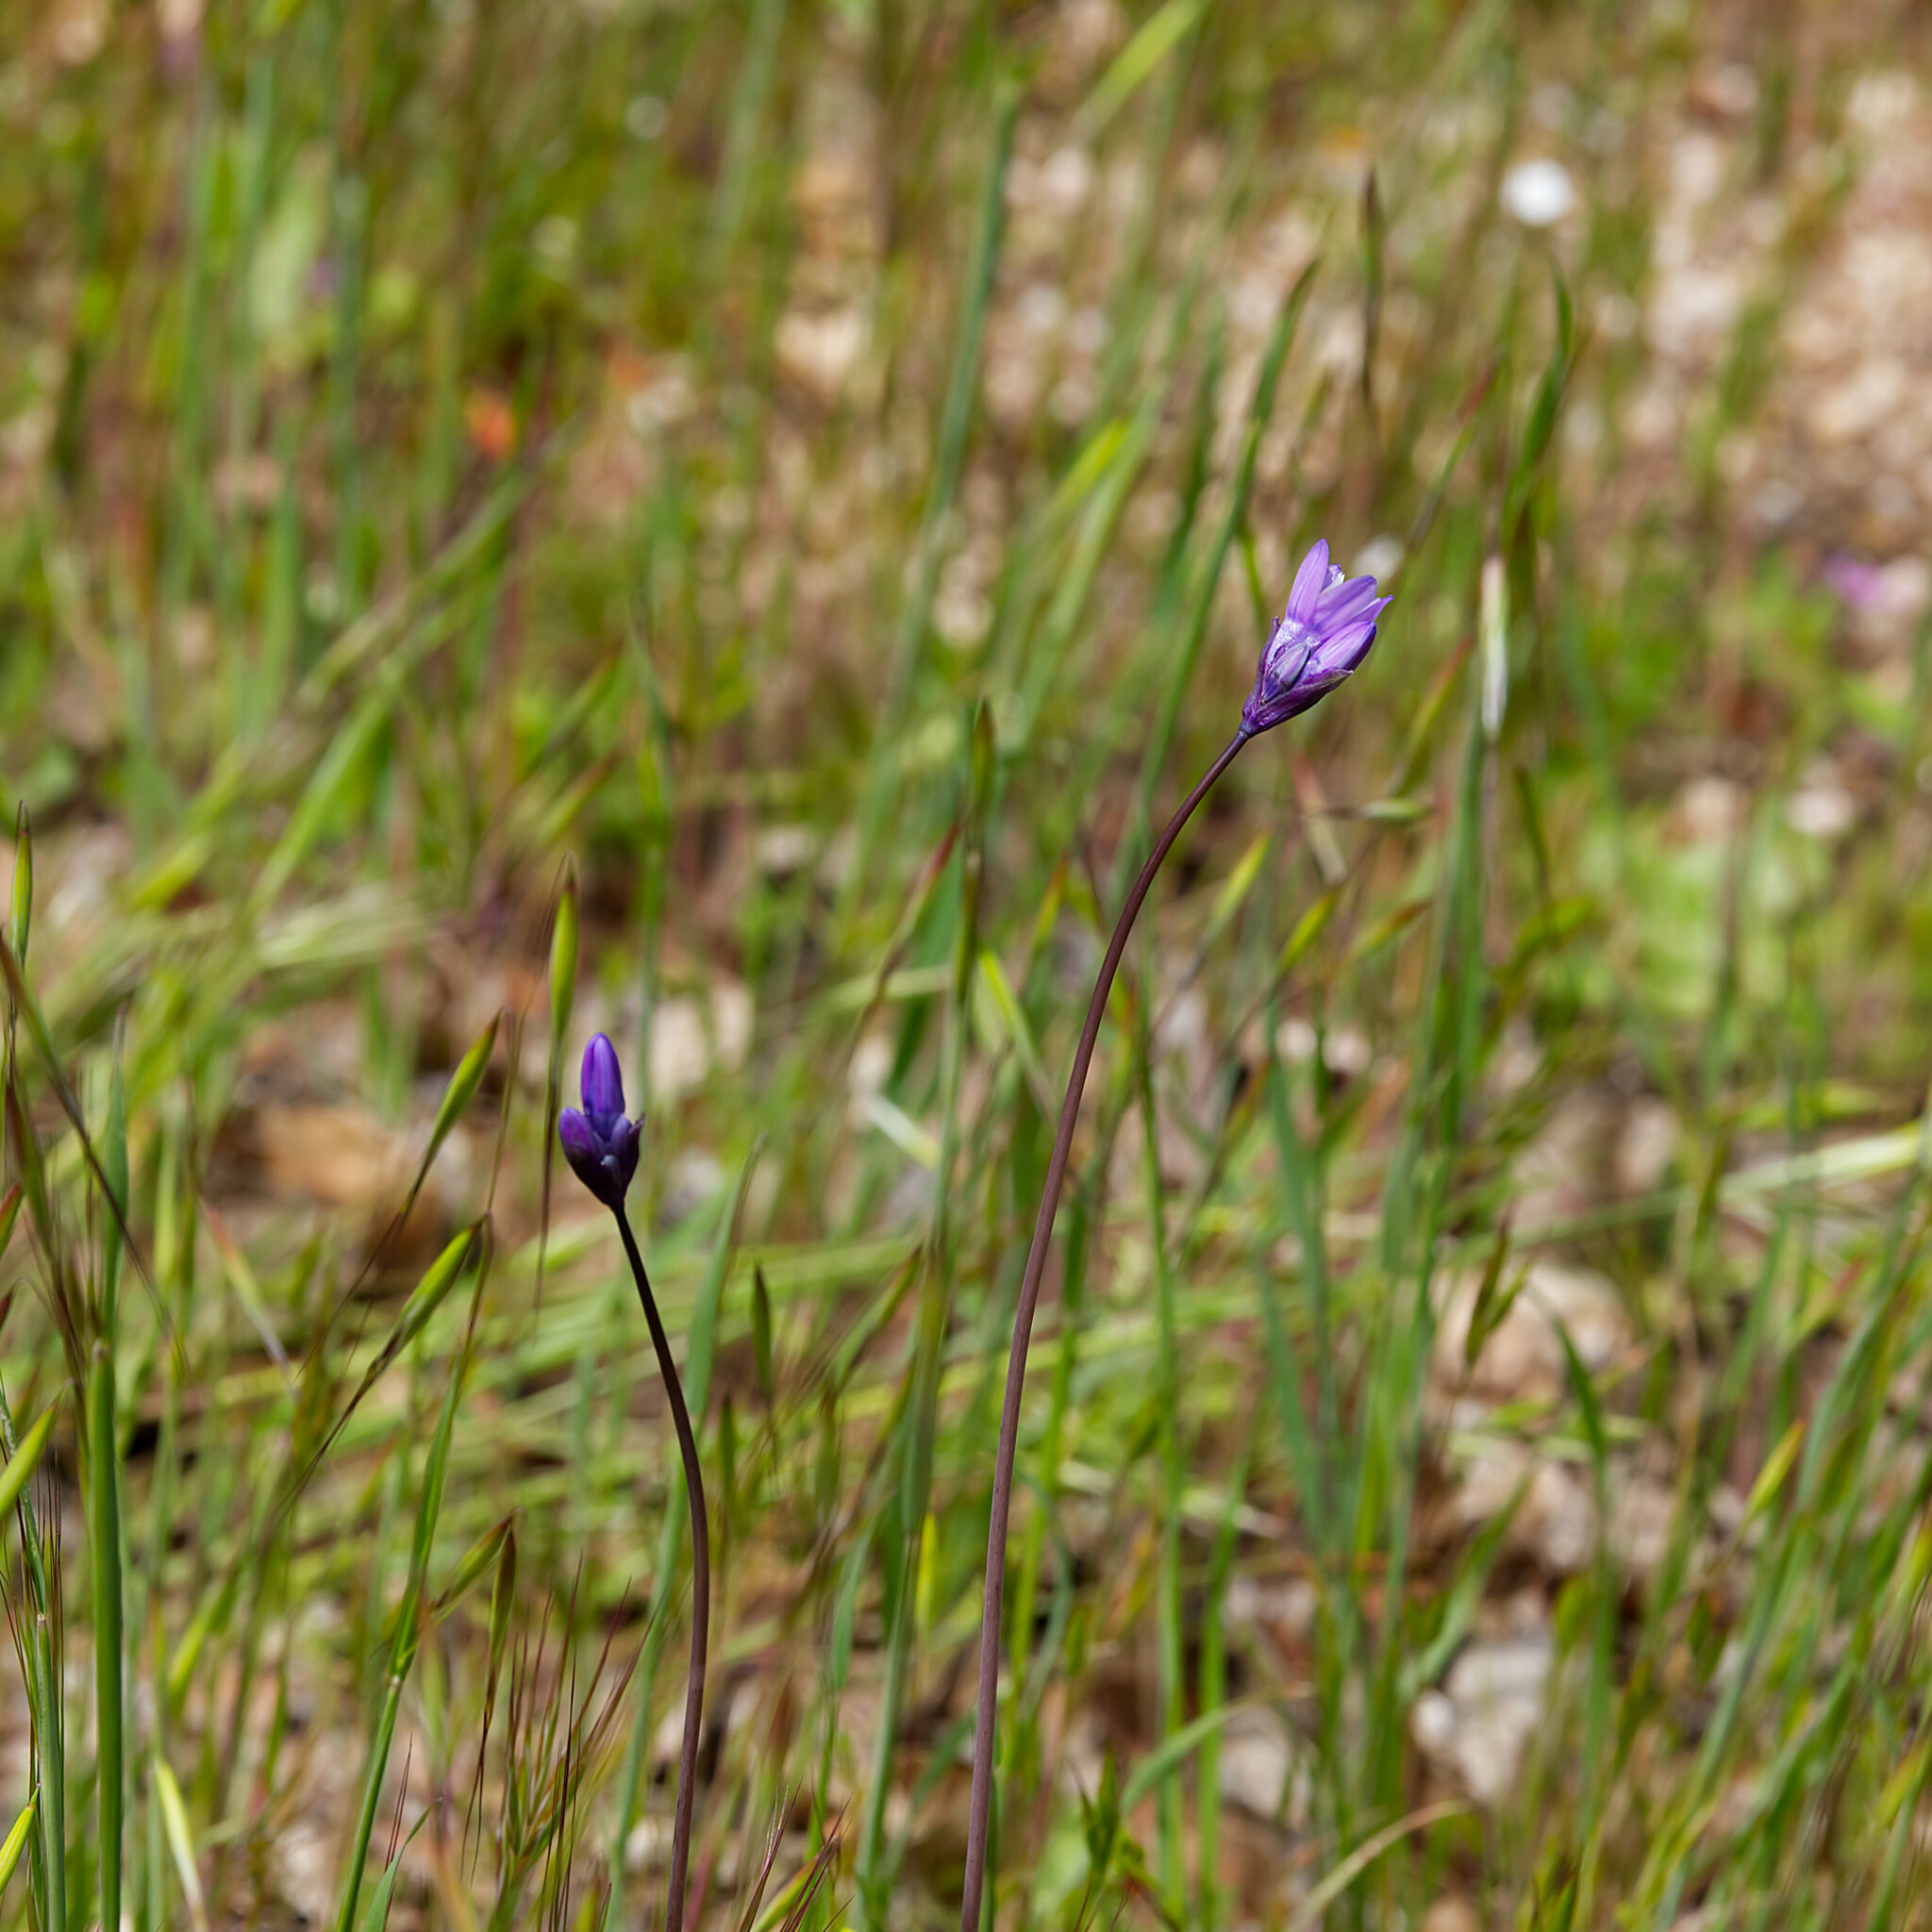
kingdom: Plantae
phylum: Tracheophyta
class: Liliopsida
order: Asparagales
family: Asparagaceae
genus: Dipterostemon
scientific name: Dipterostemon capitatus
